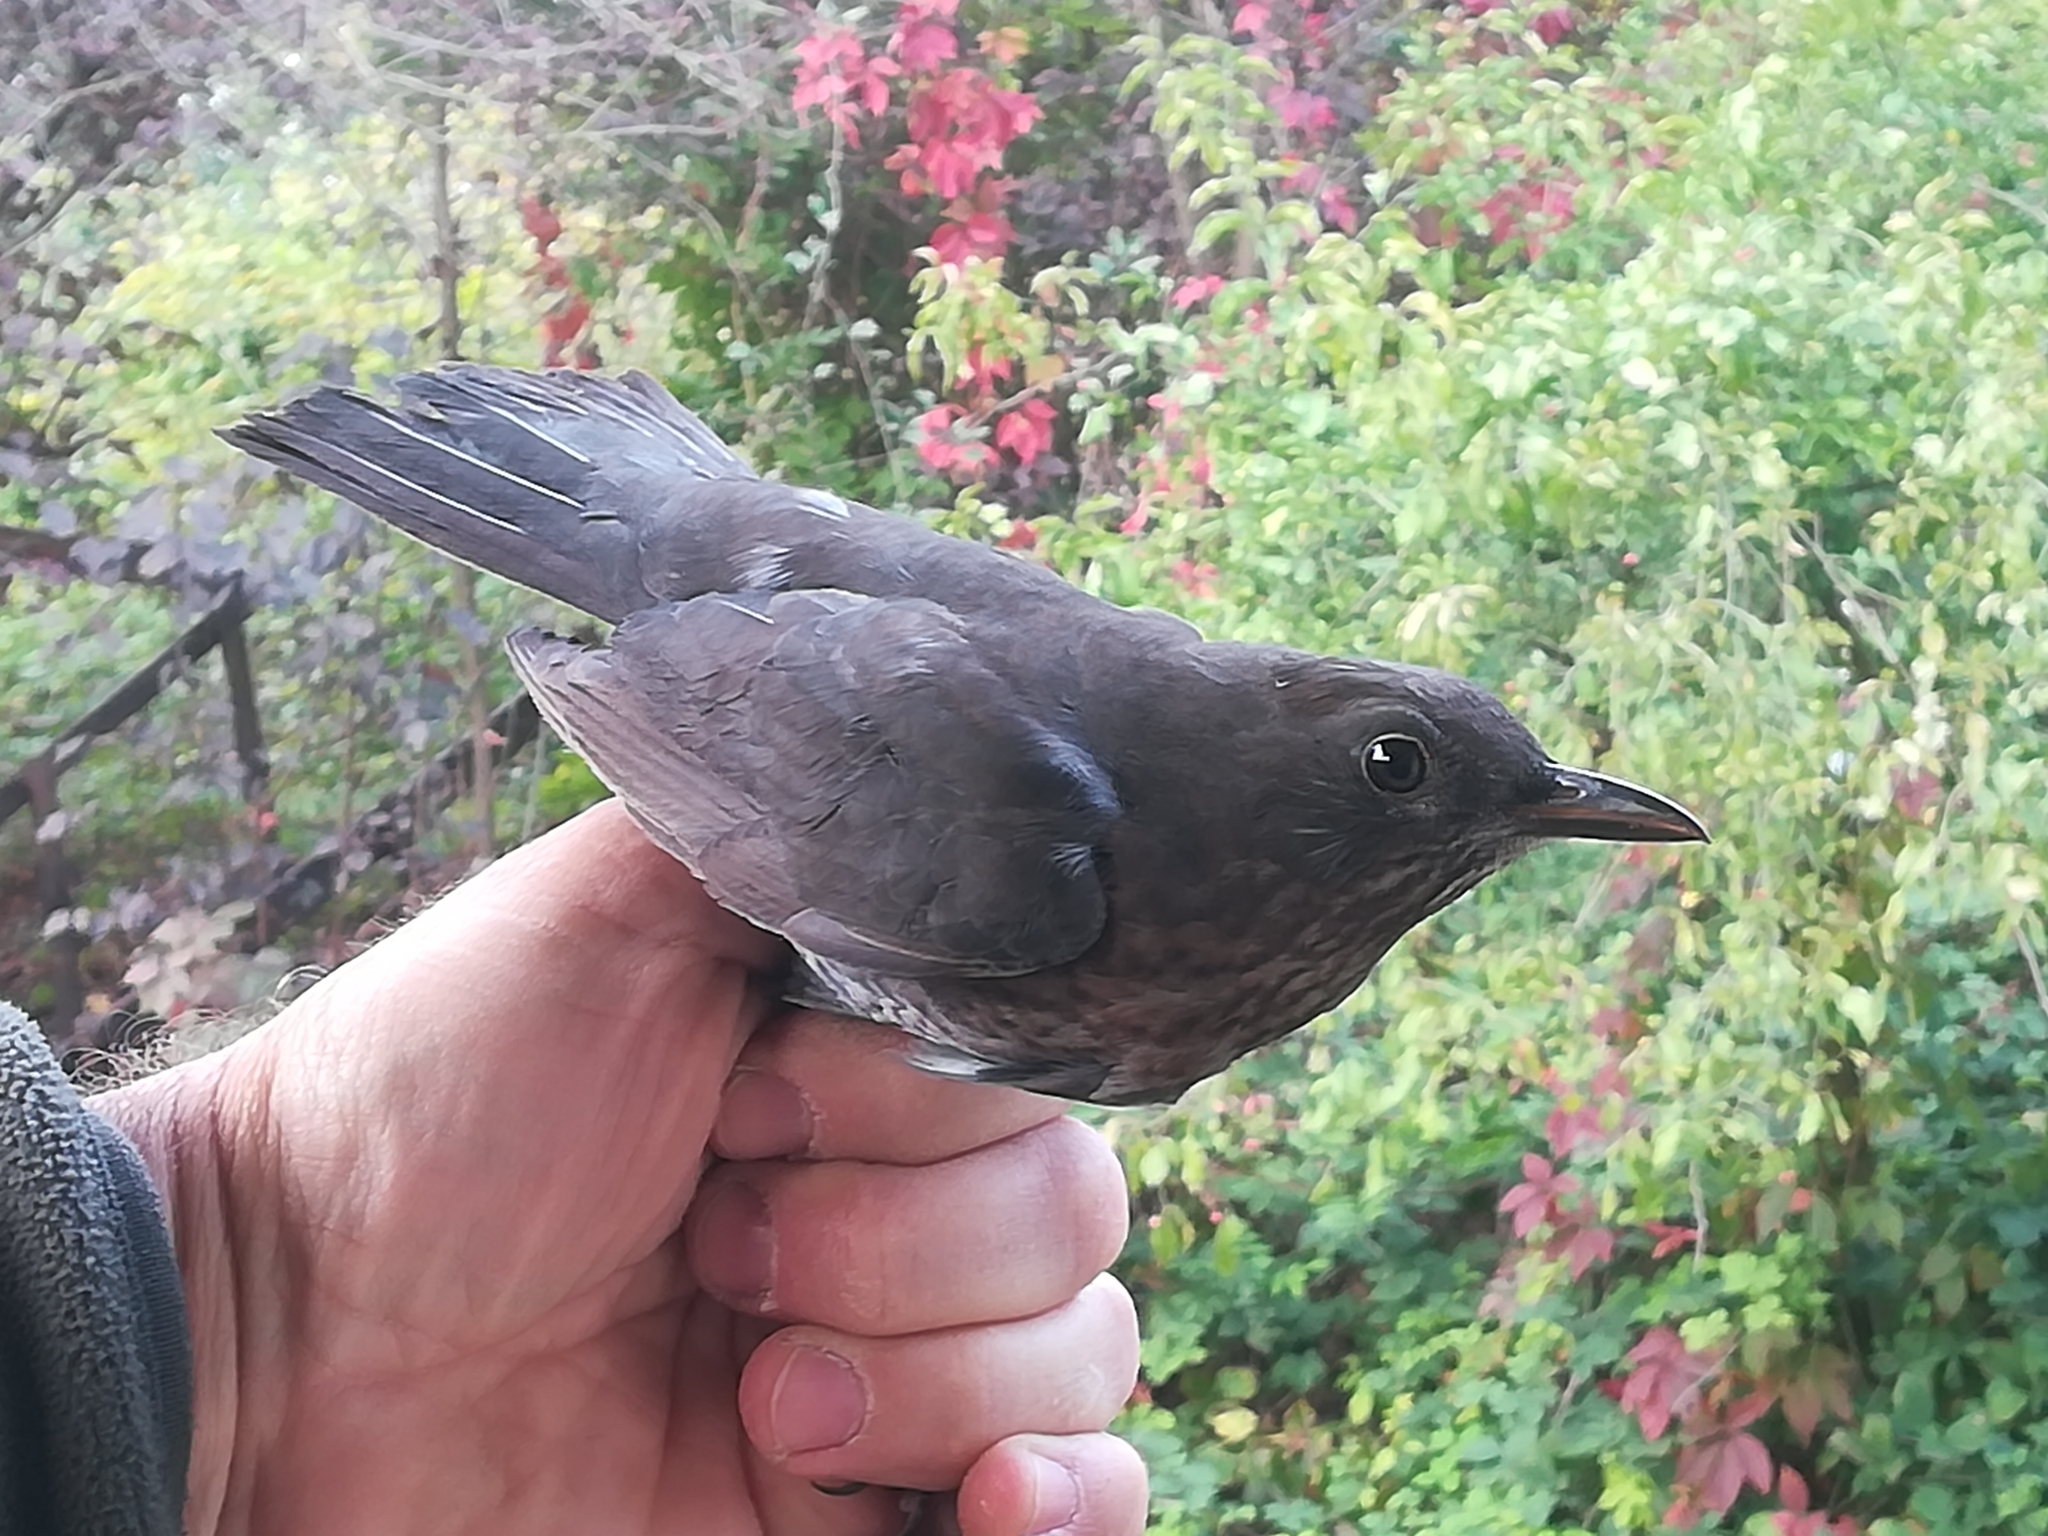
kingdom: Animalia
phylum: Chordata
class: Aves
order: Passeriformes
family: Turdidae
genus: Turdus
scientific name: Turdus merula
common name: Common blackbird
